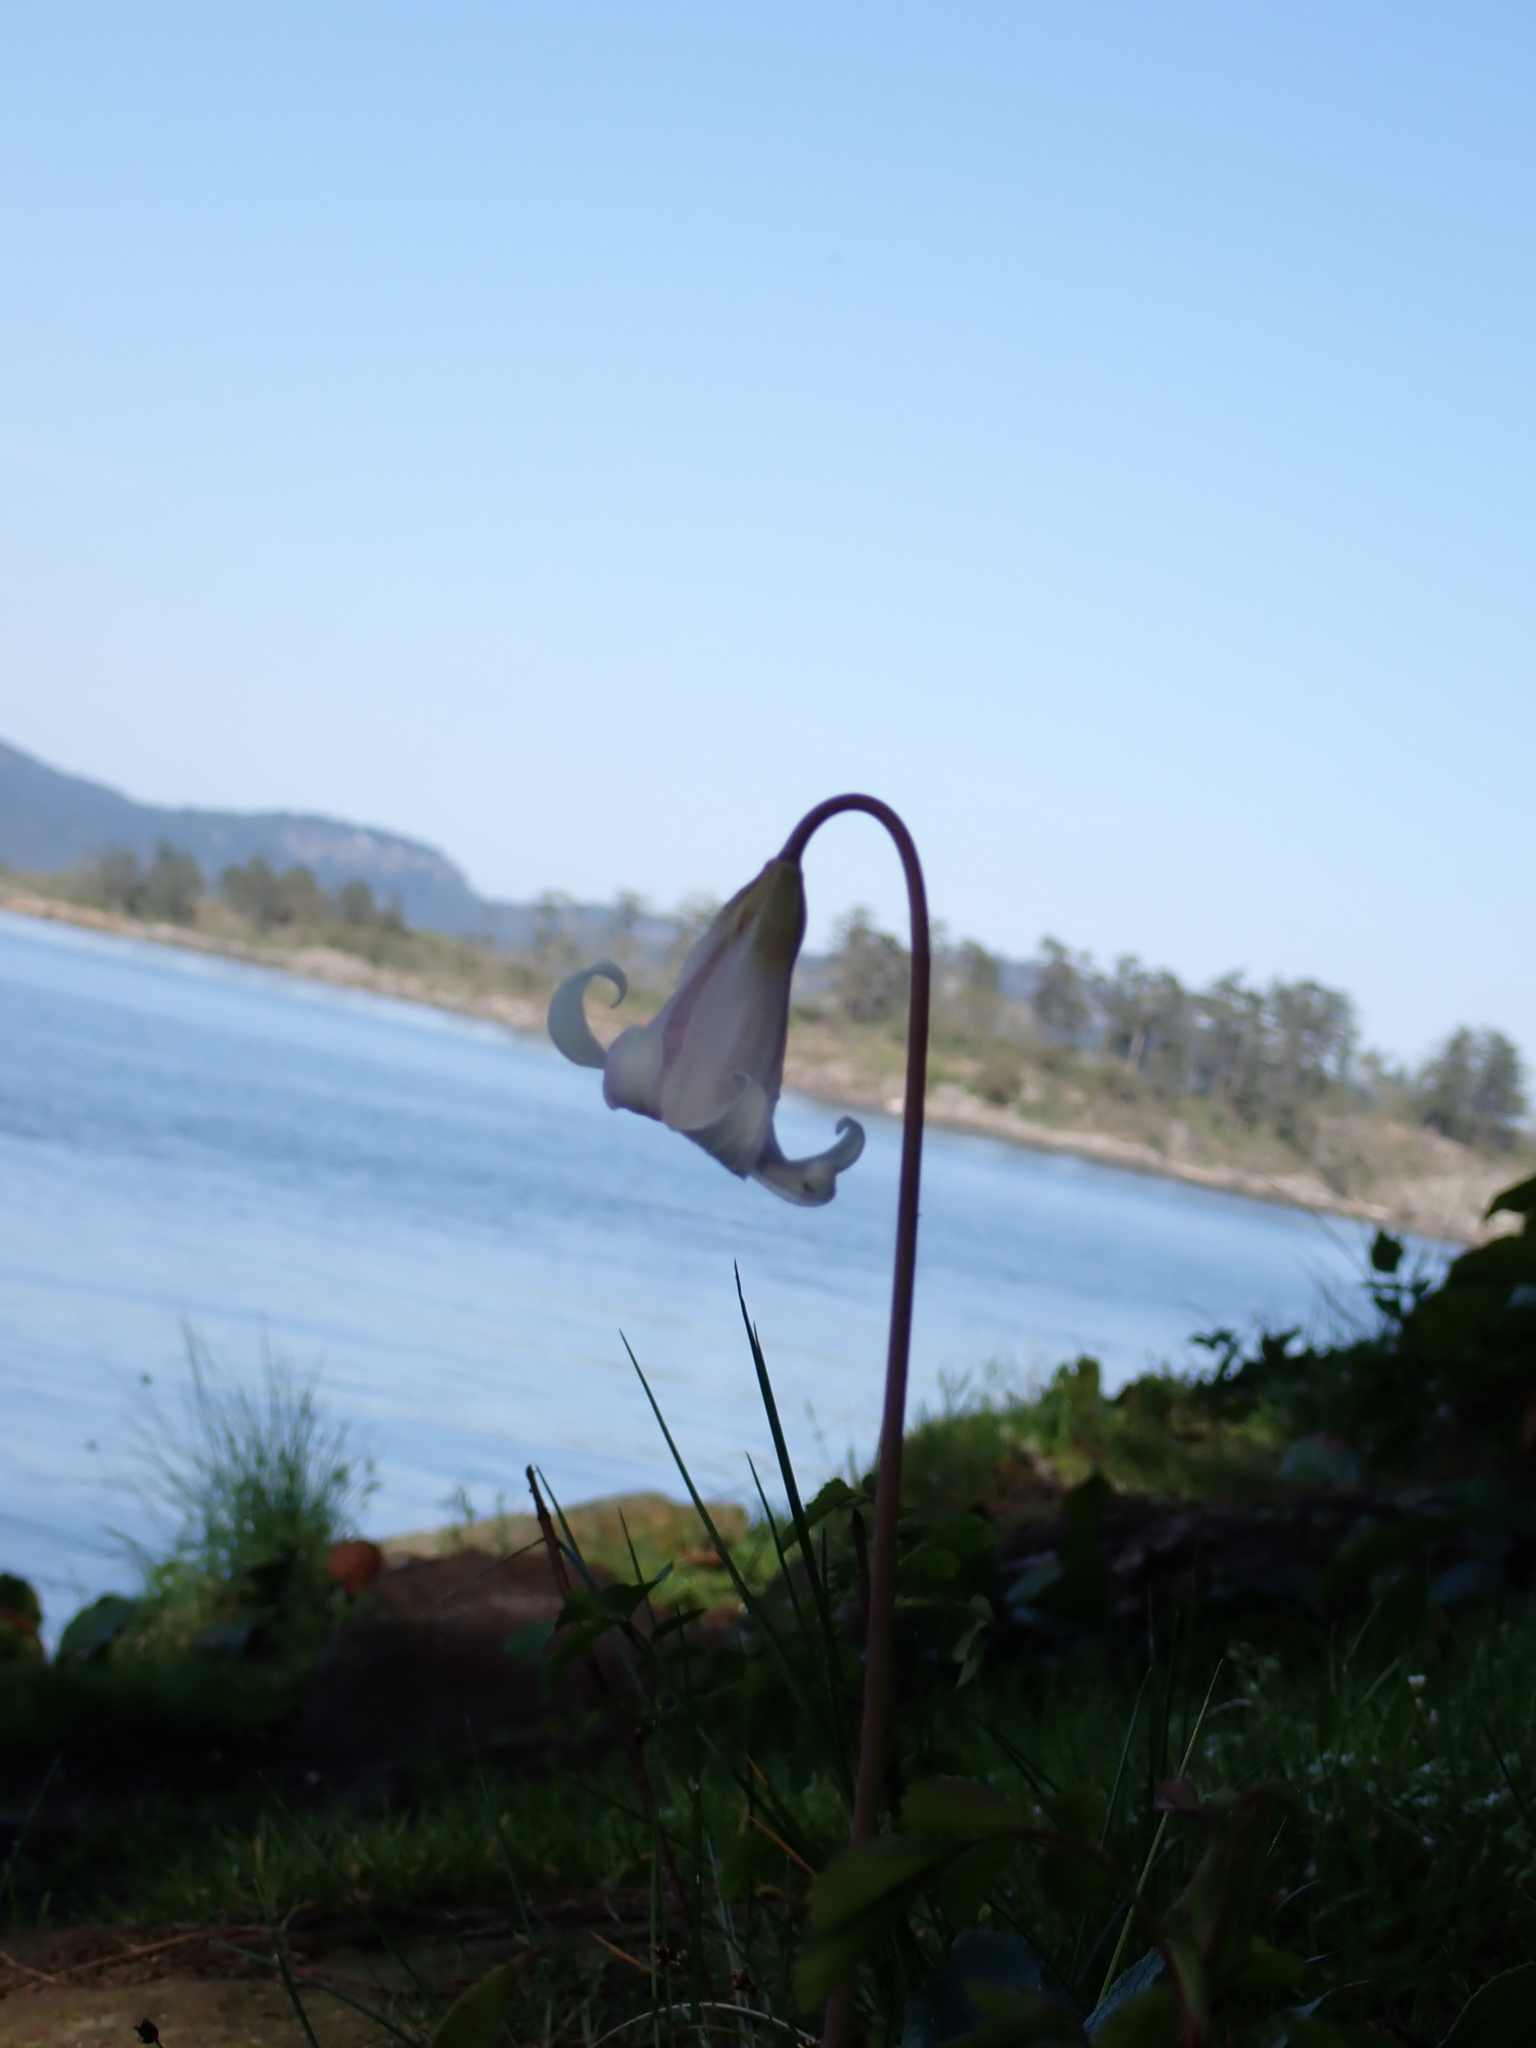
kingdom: Plantae
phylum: Tracheophyta
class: Liliopsida
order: Liliales
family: Liliaceae
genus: Erythronium
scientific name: Erythronium oregonum
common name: Giant adder's-tongue
